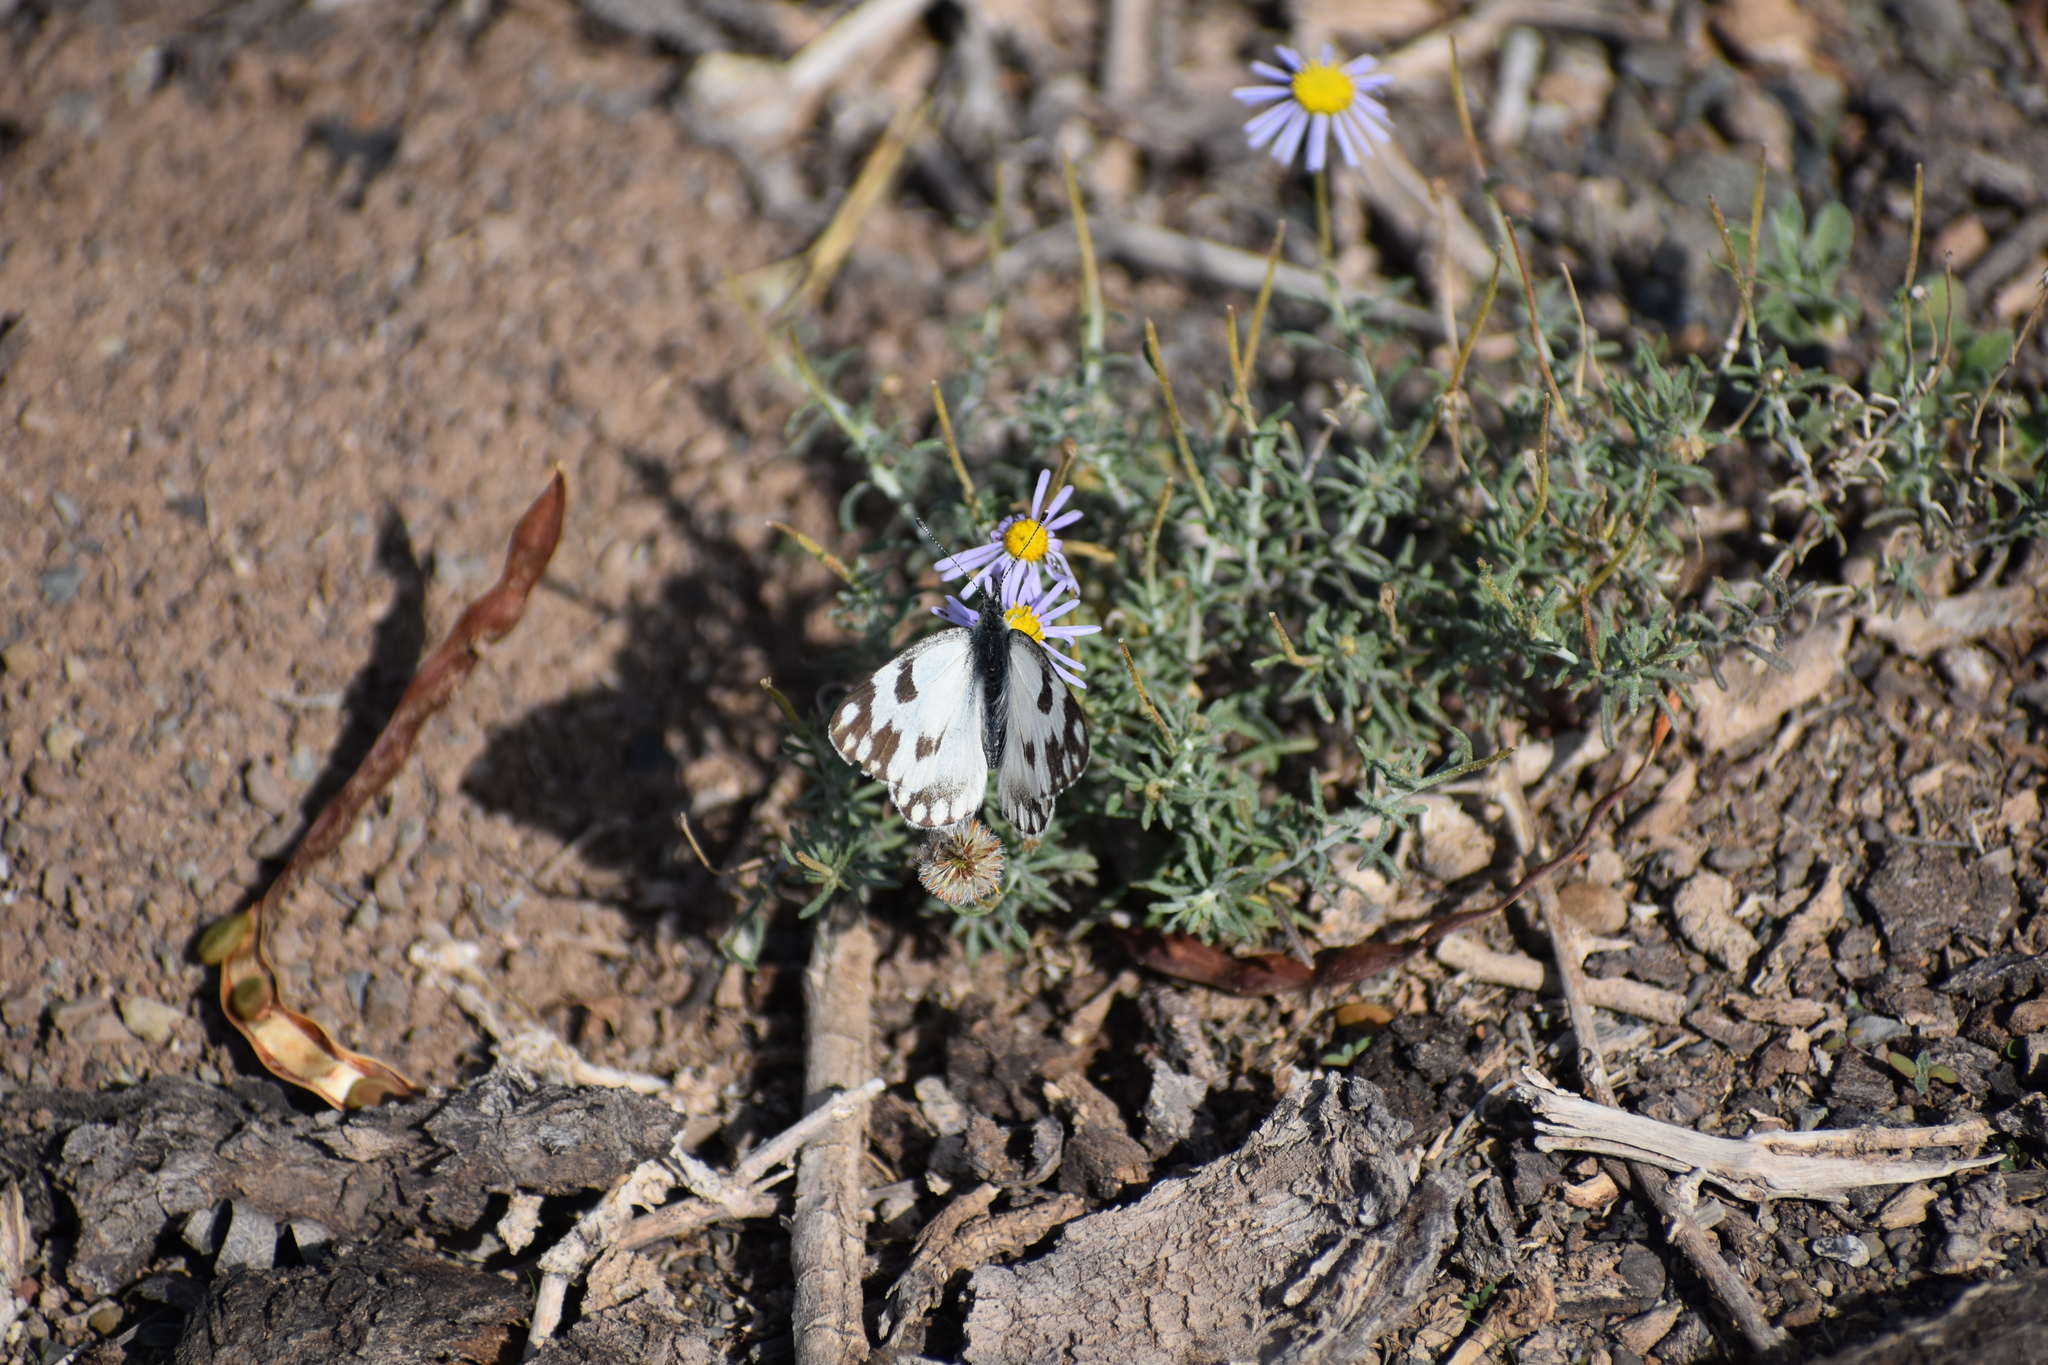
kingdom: Animalia
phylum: Arthropoda
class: Insecta
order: Lepidoptera
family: Pieridae
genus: Pontia
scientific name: Pontia helice
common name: Meadow white
